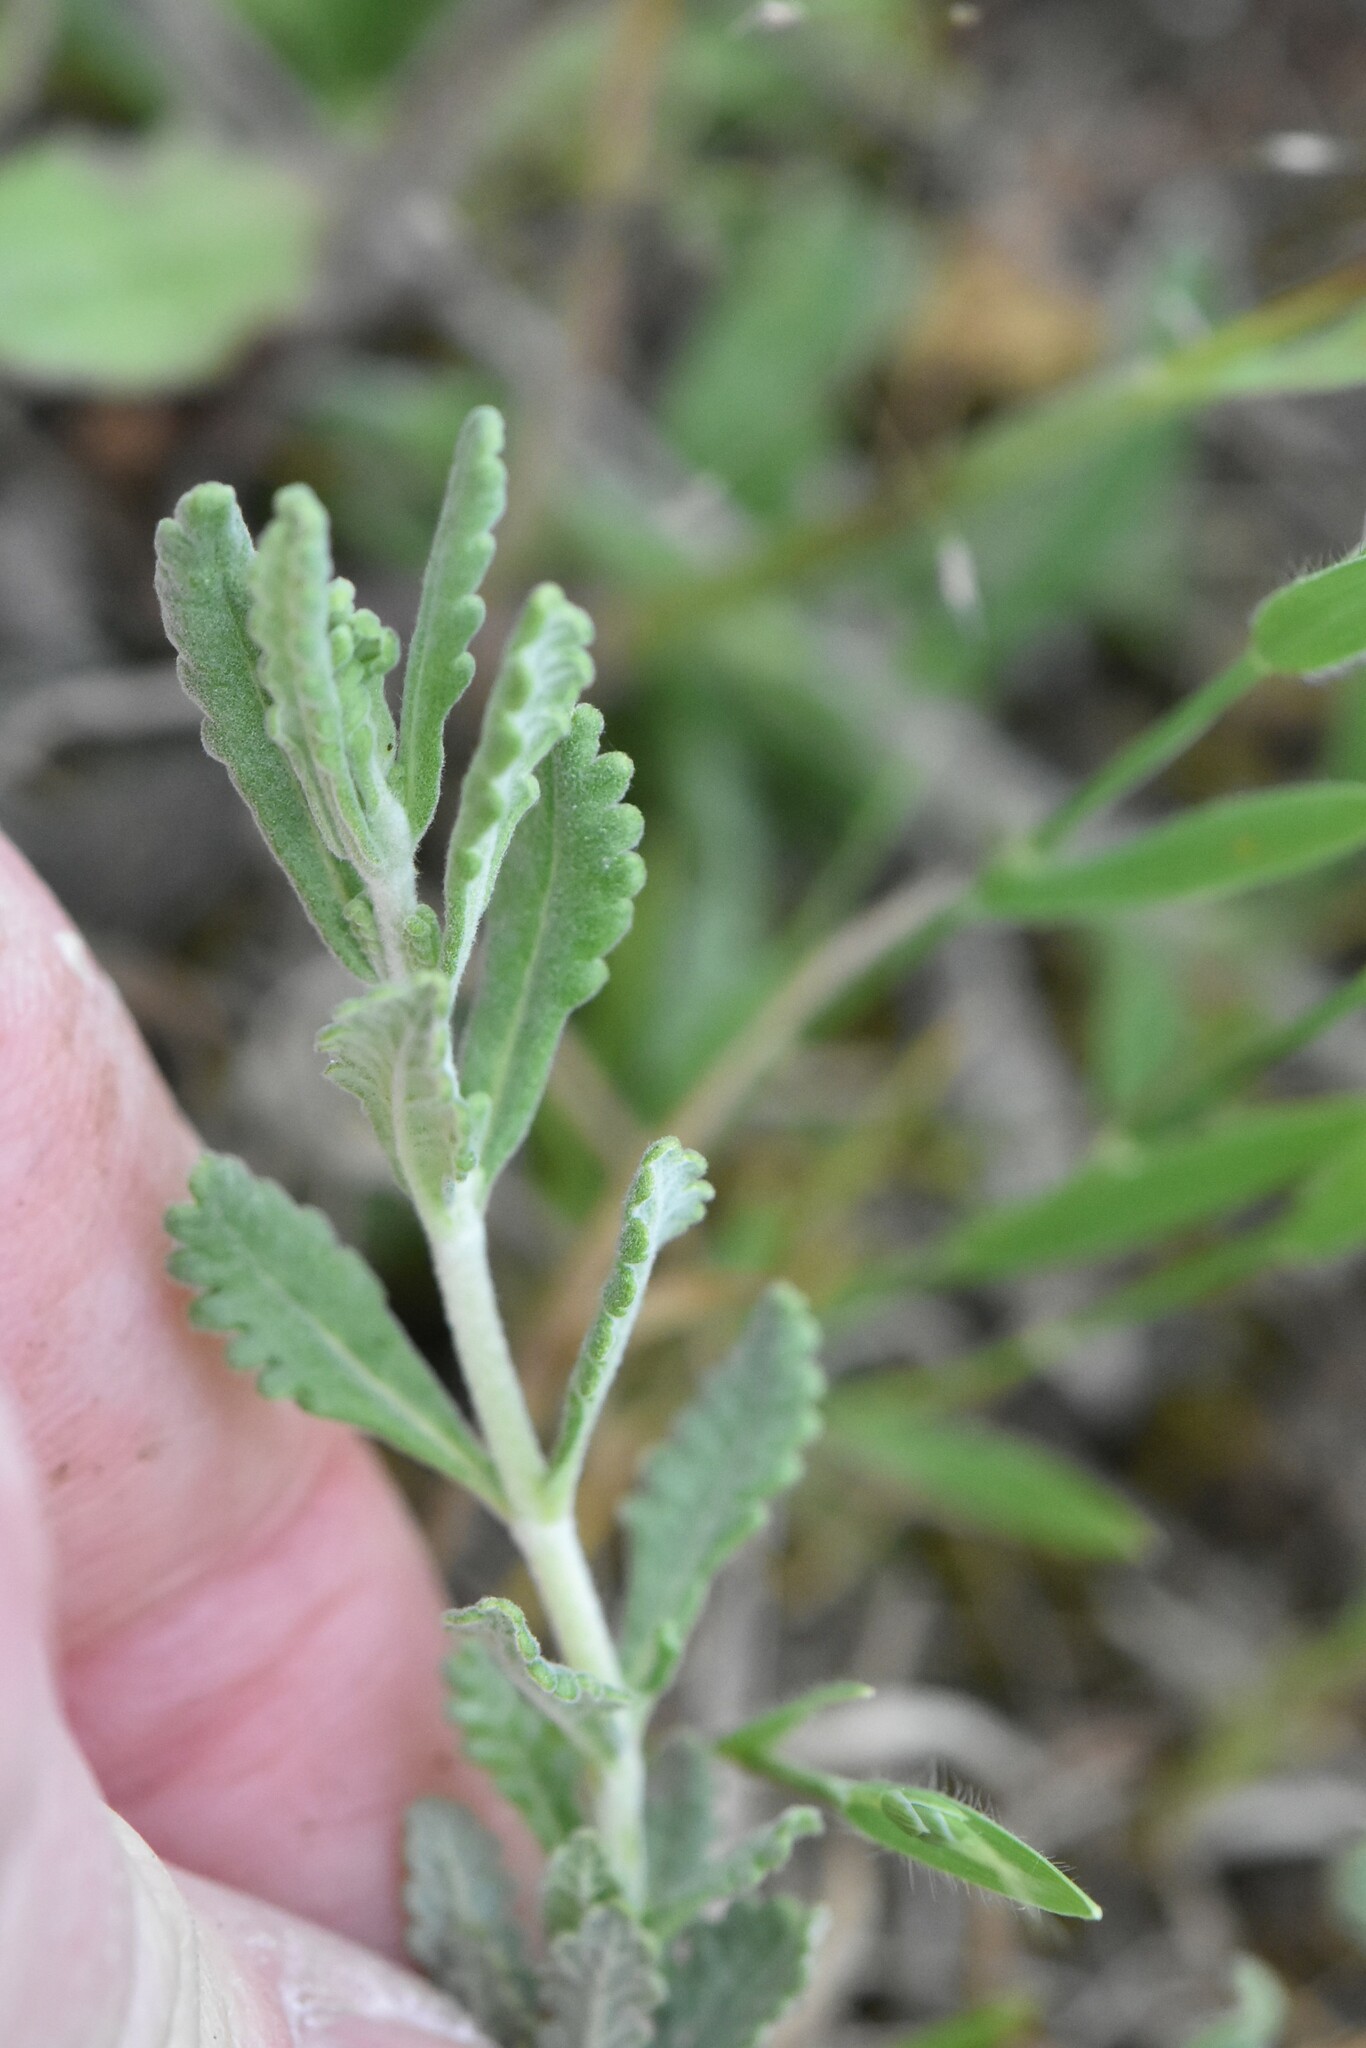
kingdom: Plantae
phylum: Tracheophyta
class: Magnoliopsida
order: Lamiales
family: Lamiaceae
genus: Teucrium
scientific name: Teucrium polium
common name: Poley
